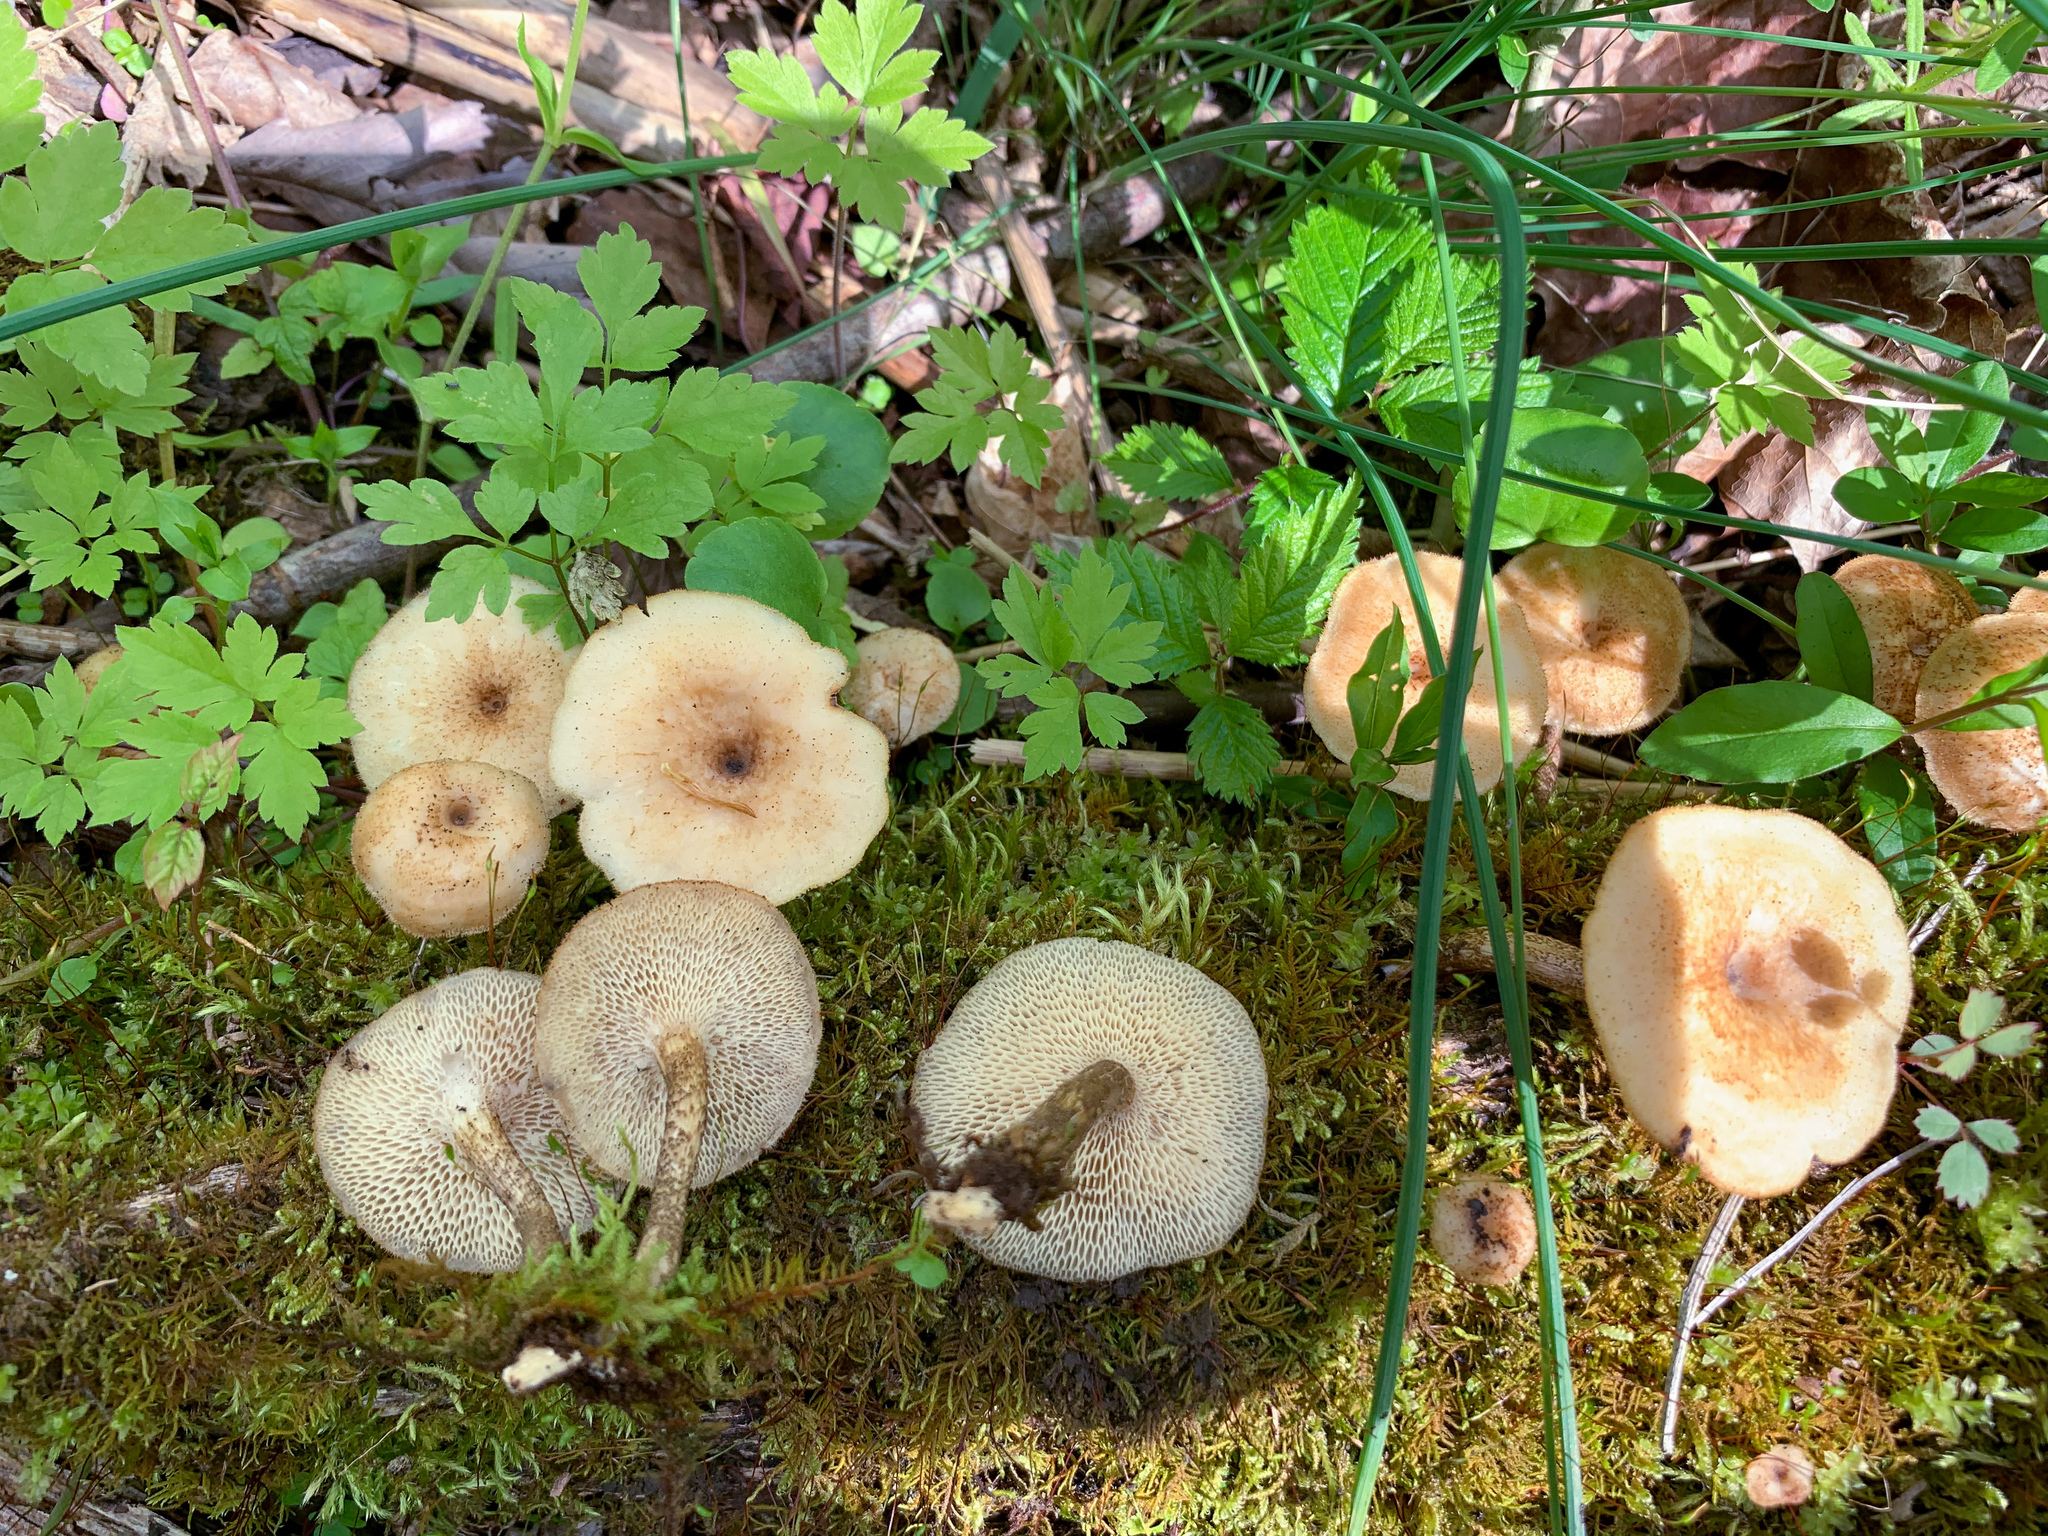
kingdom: Fungi
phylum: Basidiomycota
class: Agaricomycetes
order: Polyporales
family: Polyporaceae
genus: Lentinus
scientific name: Lentinus arcularius
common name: Spring polypore
